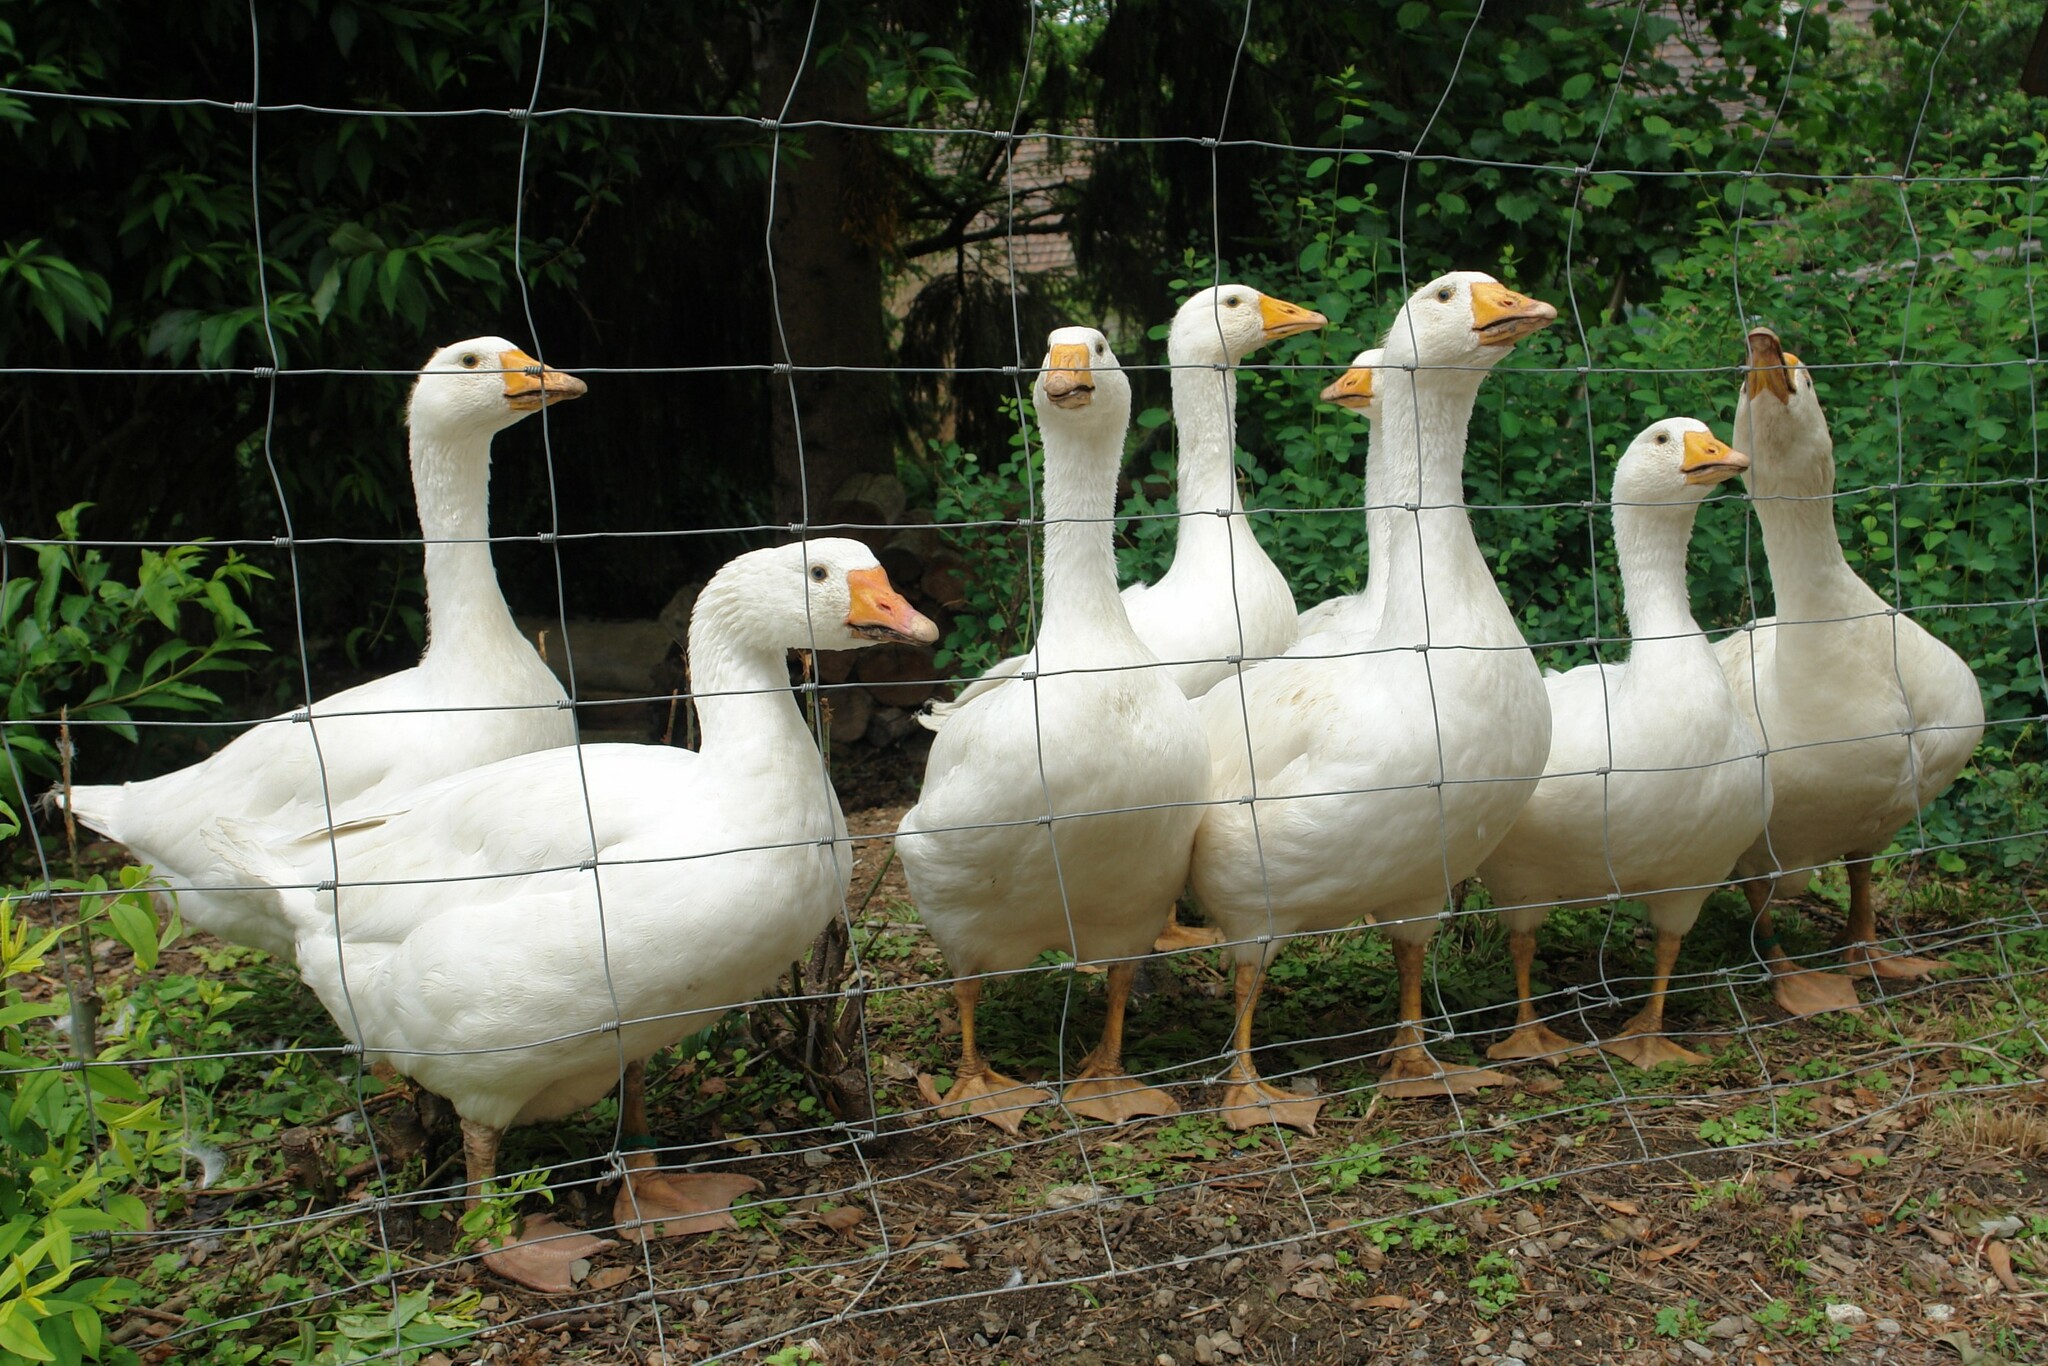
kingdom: Animalia
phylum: Chordata
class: Aves
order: Anseriformes
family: Anatidae
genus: Anser
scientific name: Anser anser
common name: Greylag goose
